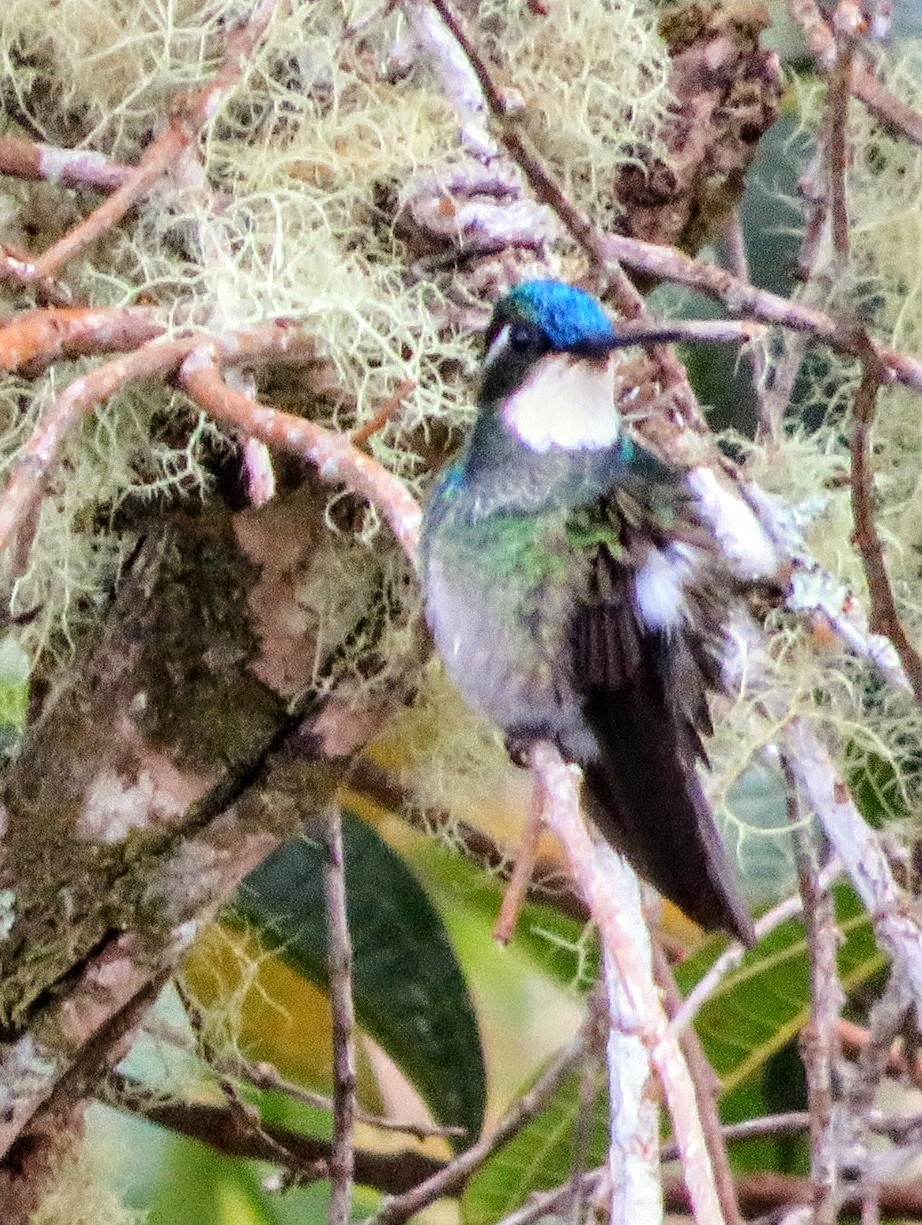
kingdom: Animalia
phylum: Chordata
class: Aves
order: Apodiformes
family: Trochilidae
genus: Lampornis
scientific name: Lampornis castaneoventris
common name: White-throated mountain-gem
